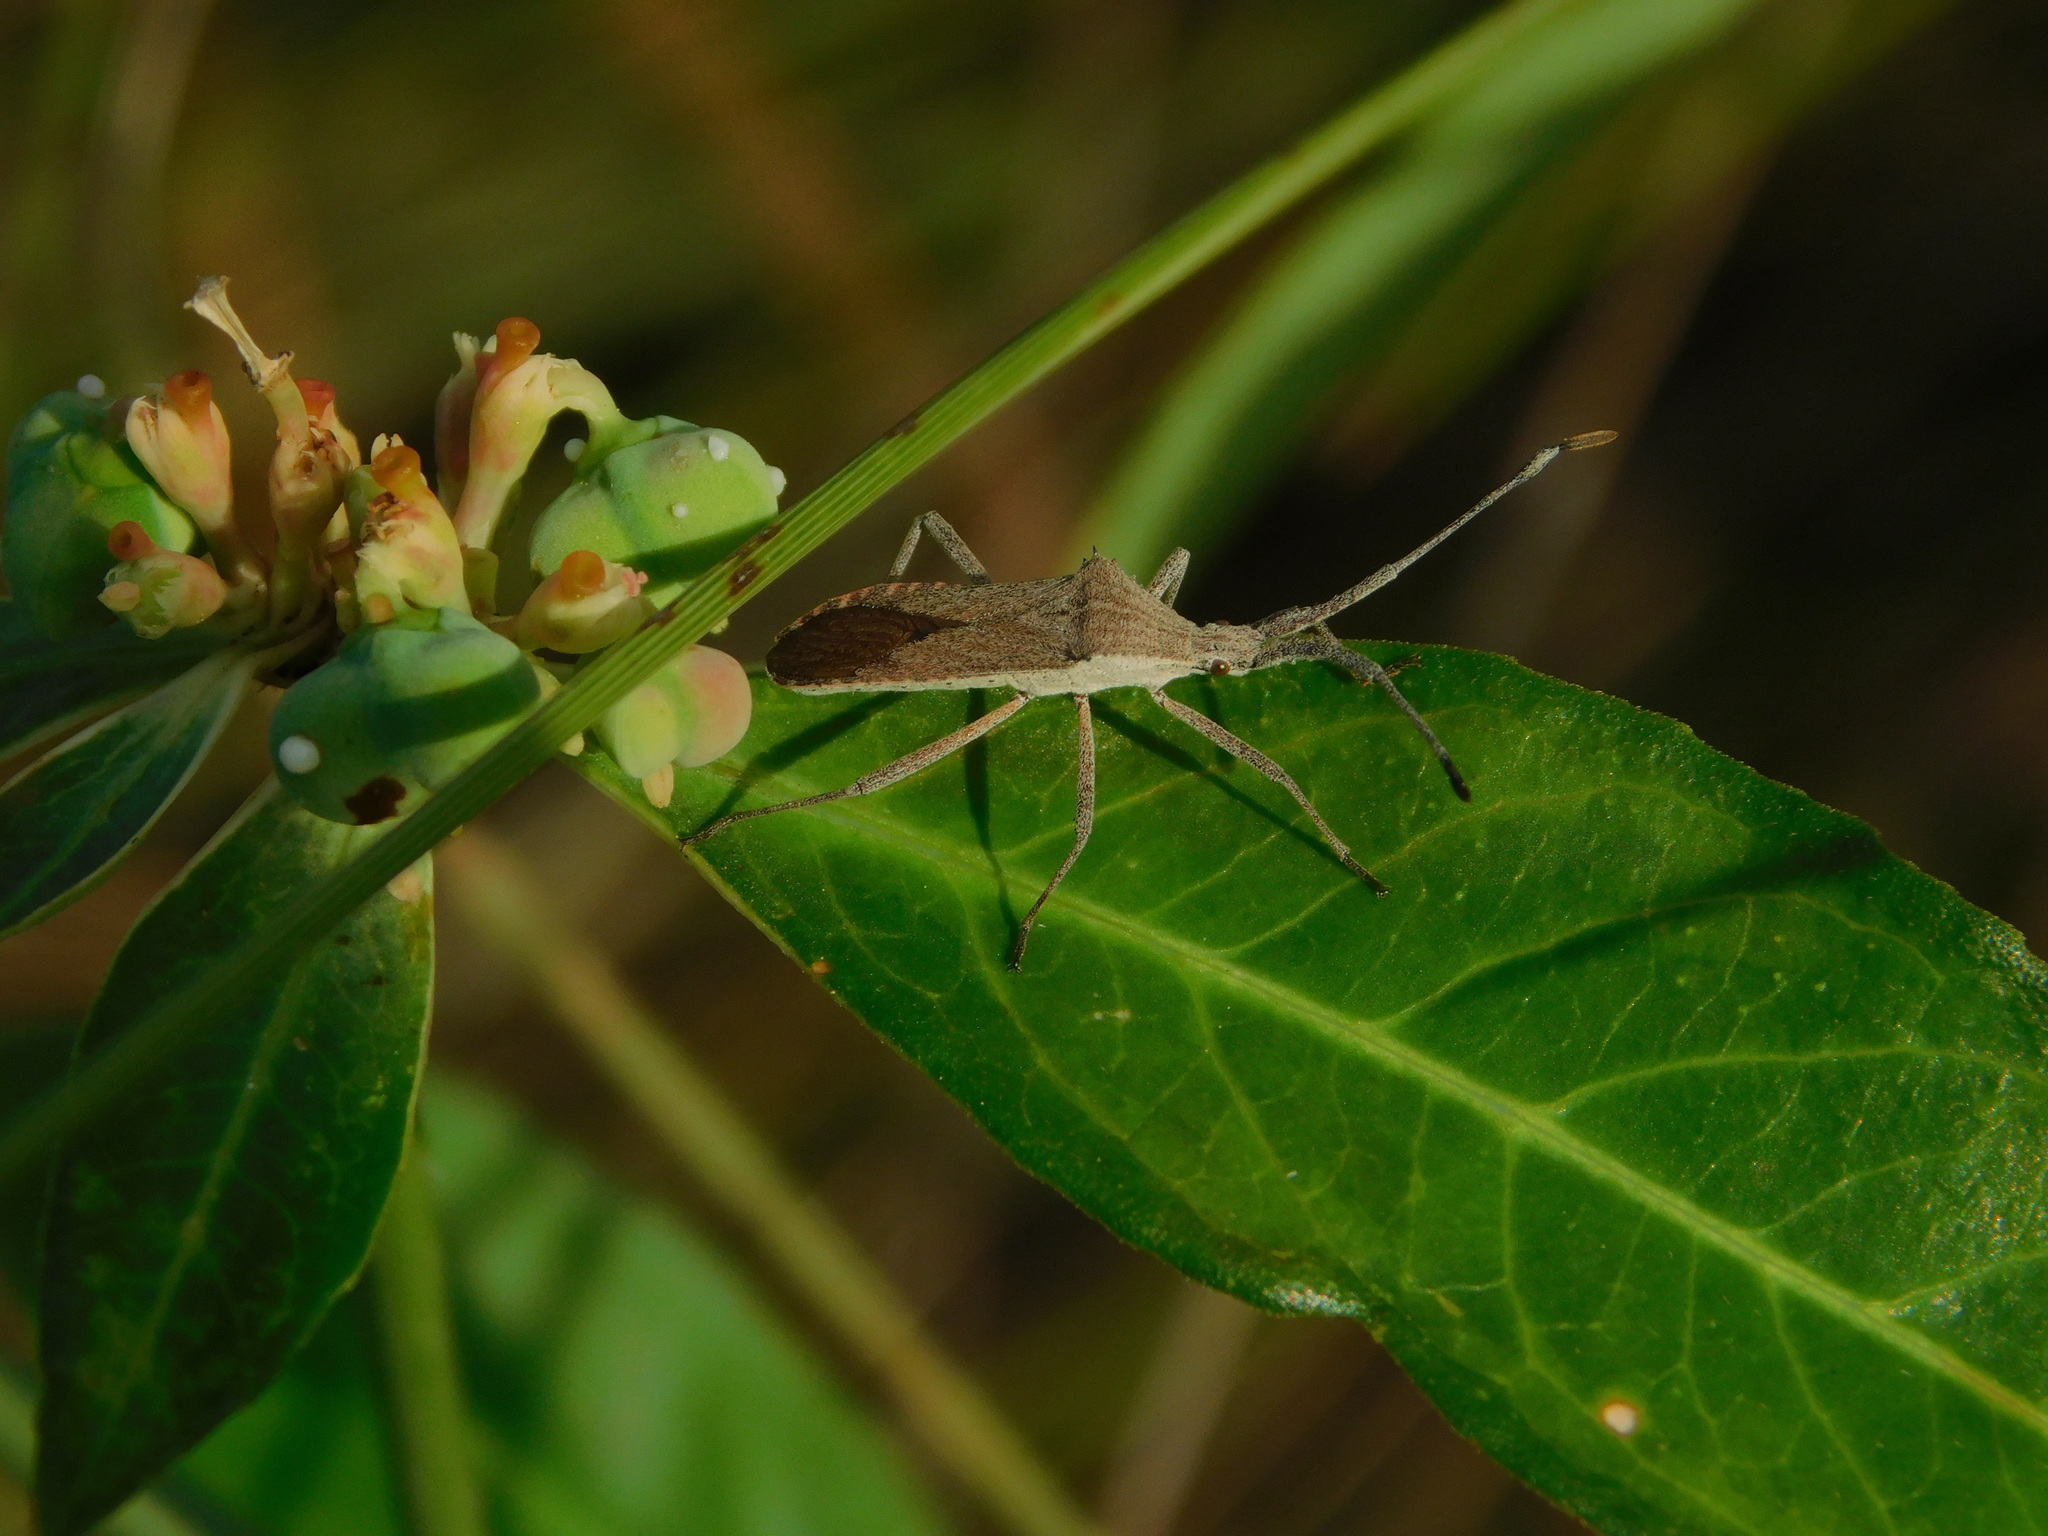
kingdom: Animalia
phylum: Arthropoda
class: Insecta
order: Hemiptera
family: Coreidae
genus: Chariesterus
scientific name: Chariesterus antennator
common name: Flat horned coreid
